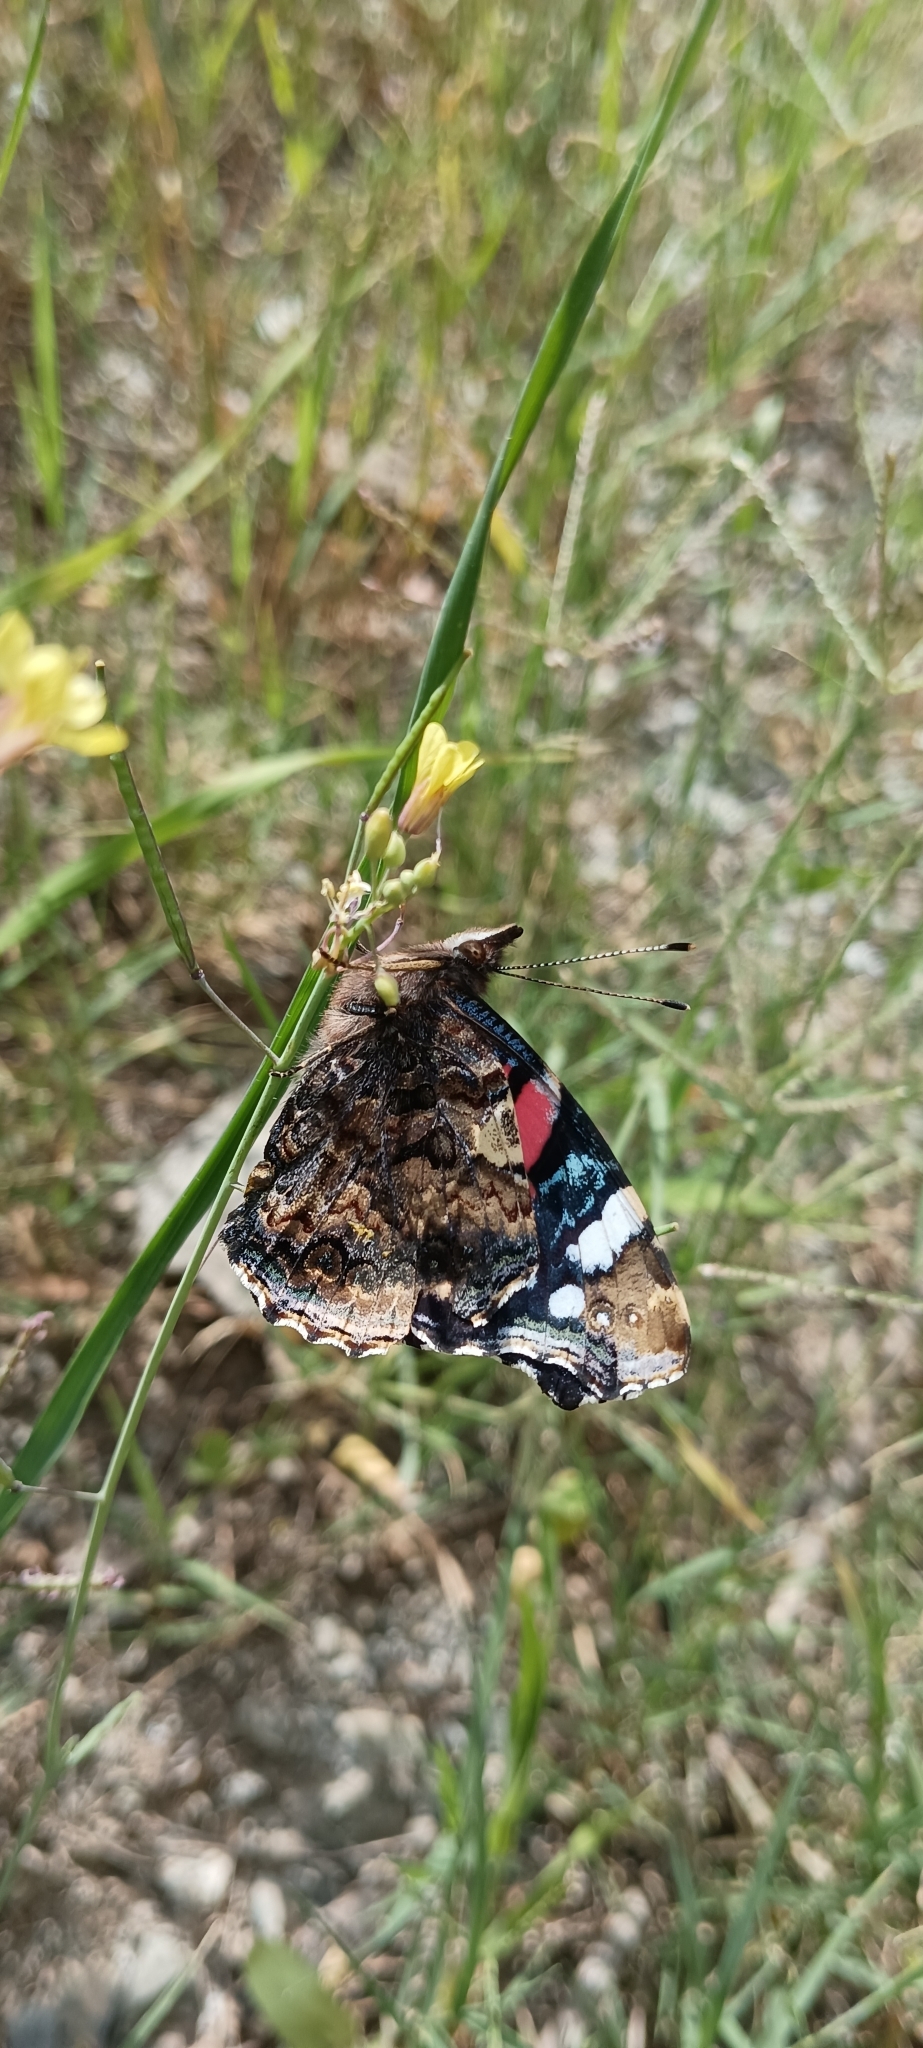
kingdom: Animalia
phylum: Arthropoda
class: Insecta
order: Lepidoptera
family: Nymphalidae
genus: Vanessa
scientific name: Vanessa atalanta
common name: Red admiral
